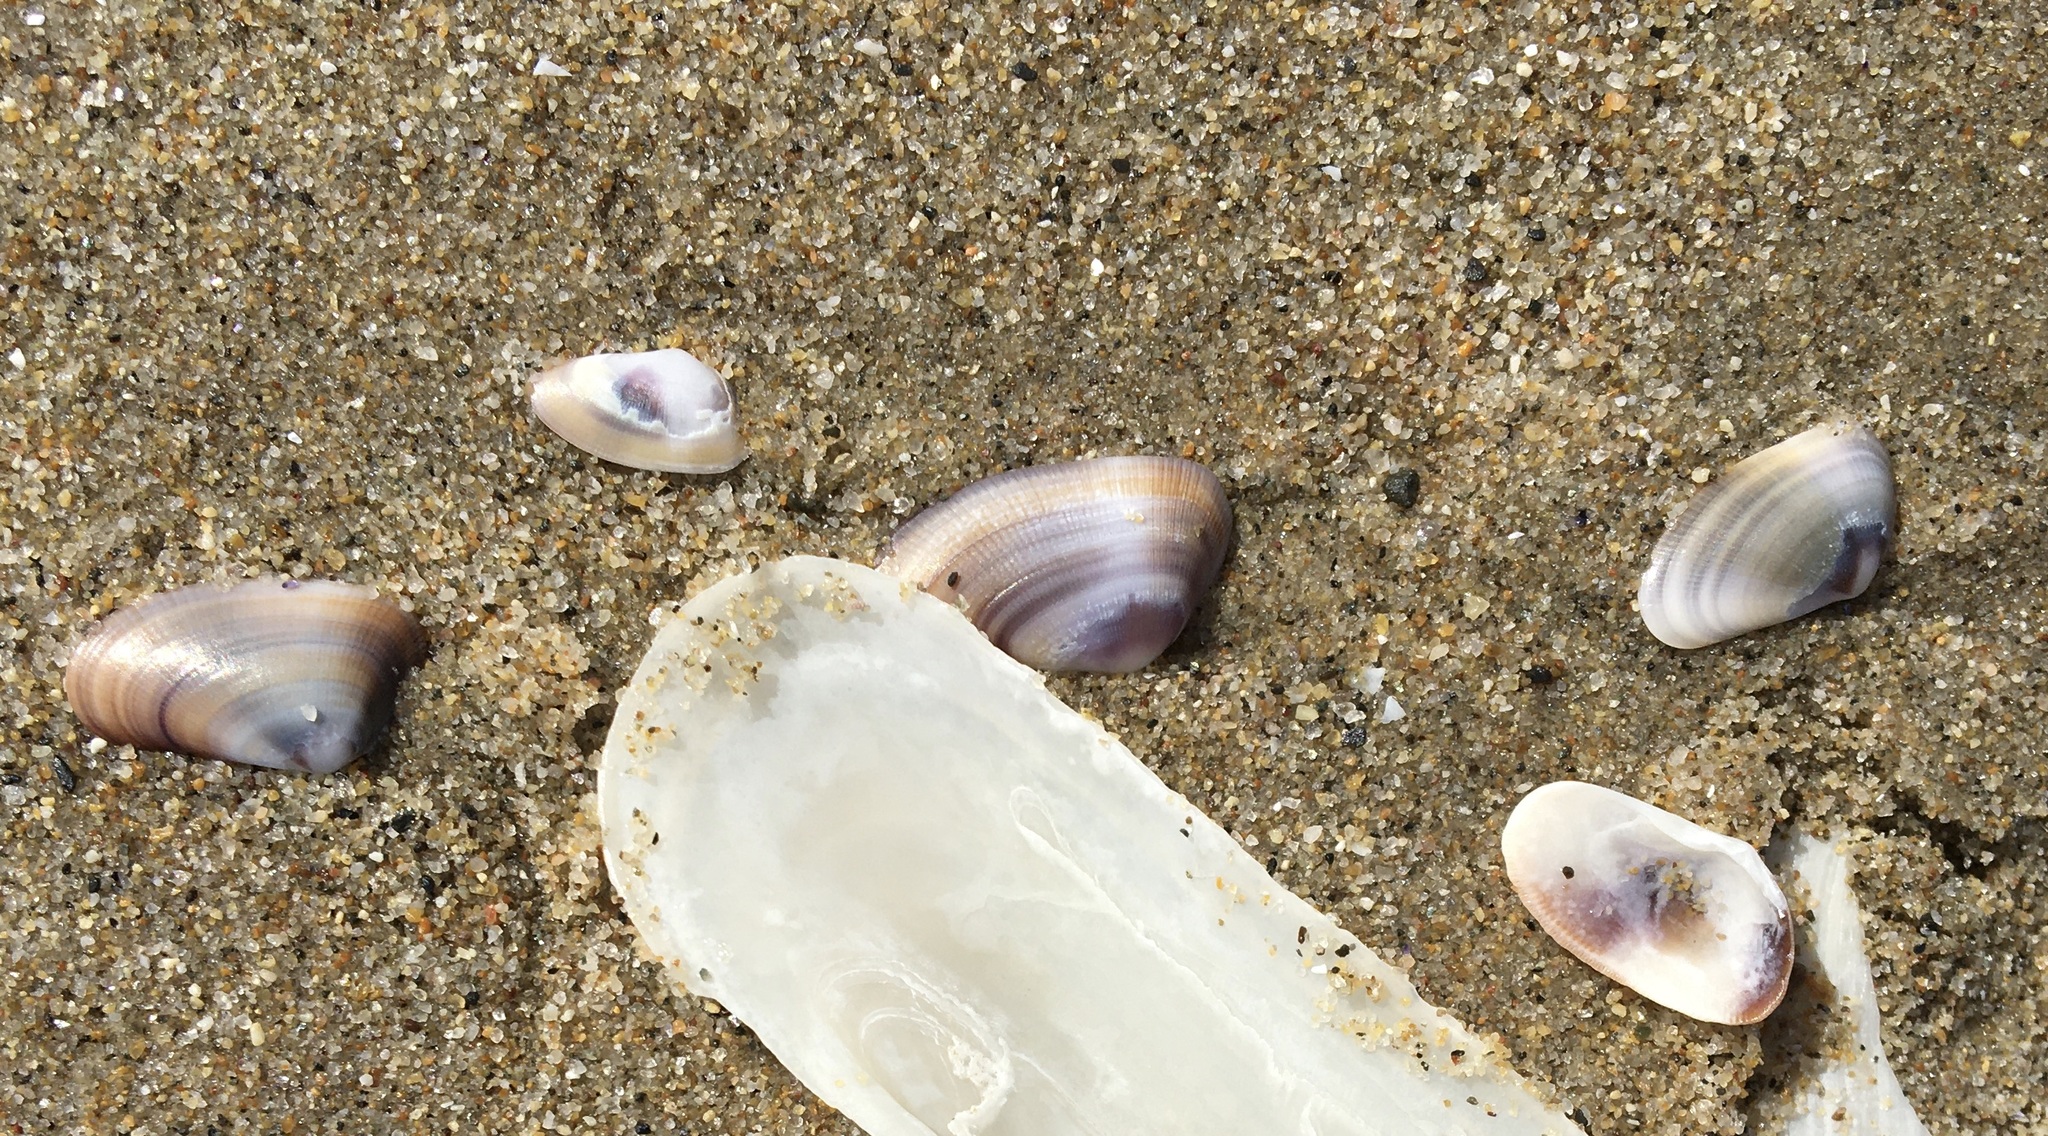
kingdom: Animalia
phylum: Mollusca
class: Bivalvia
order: Cardiida
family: Donacidae
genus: Donax
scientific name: Donax gouldii
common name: Gould beanclam
